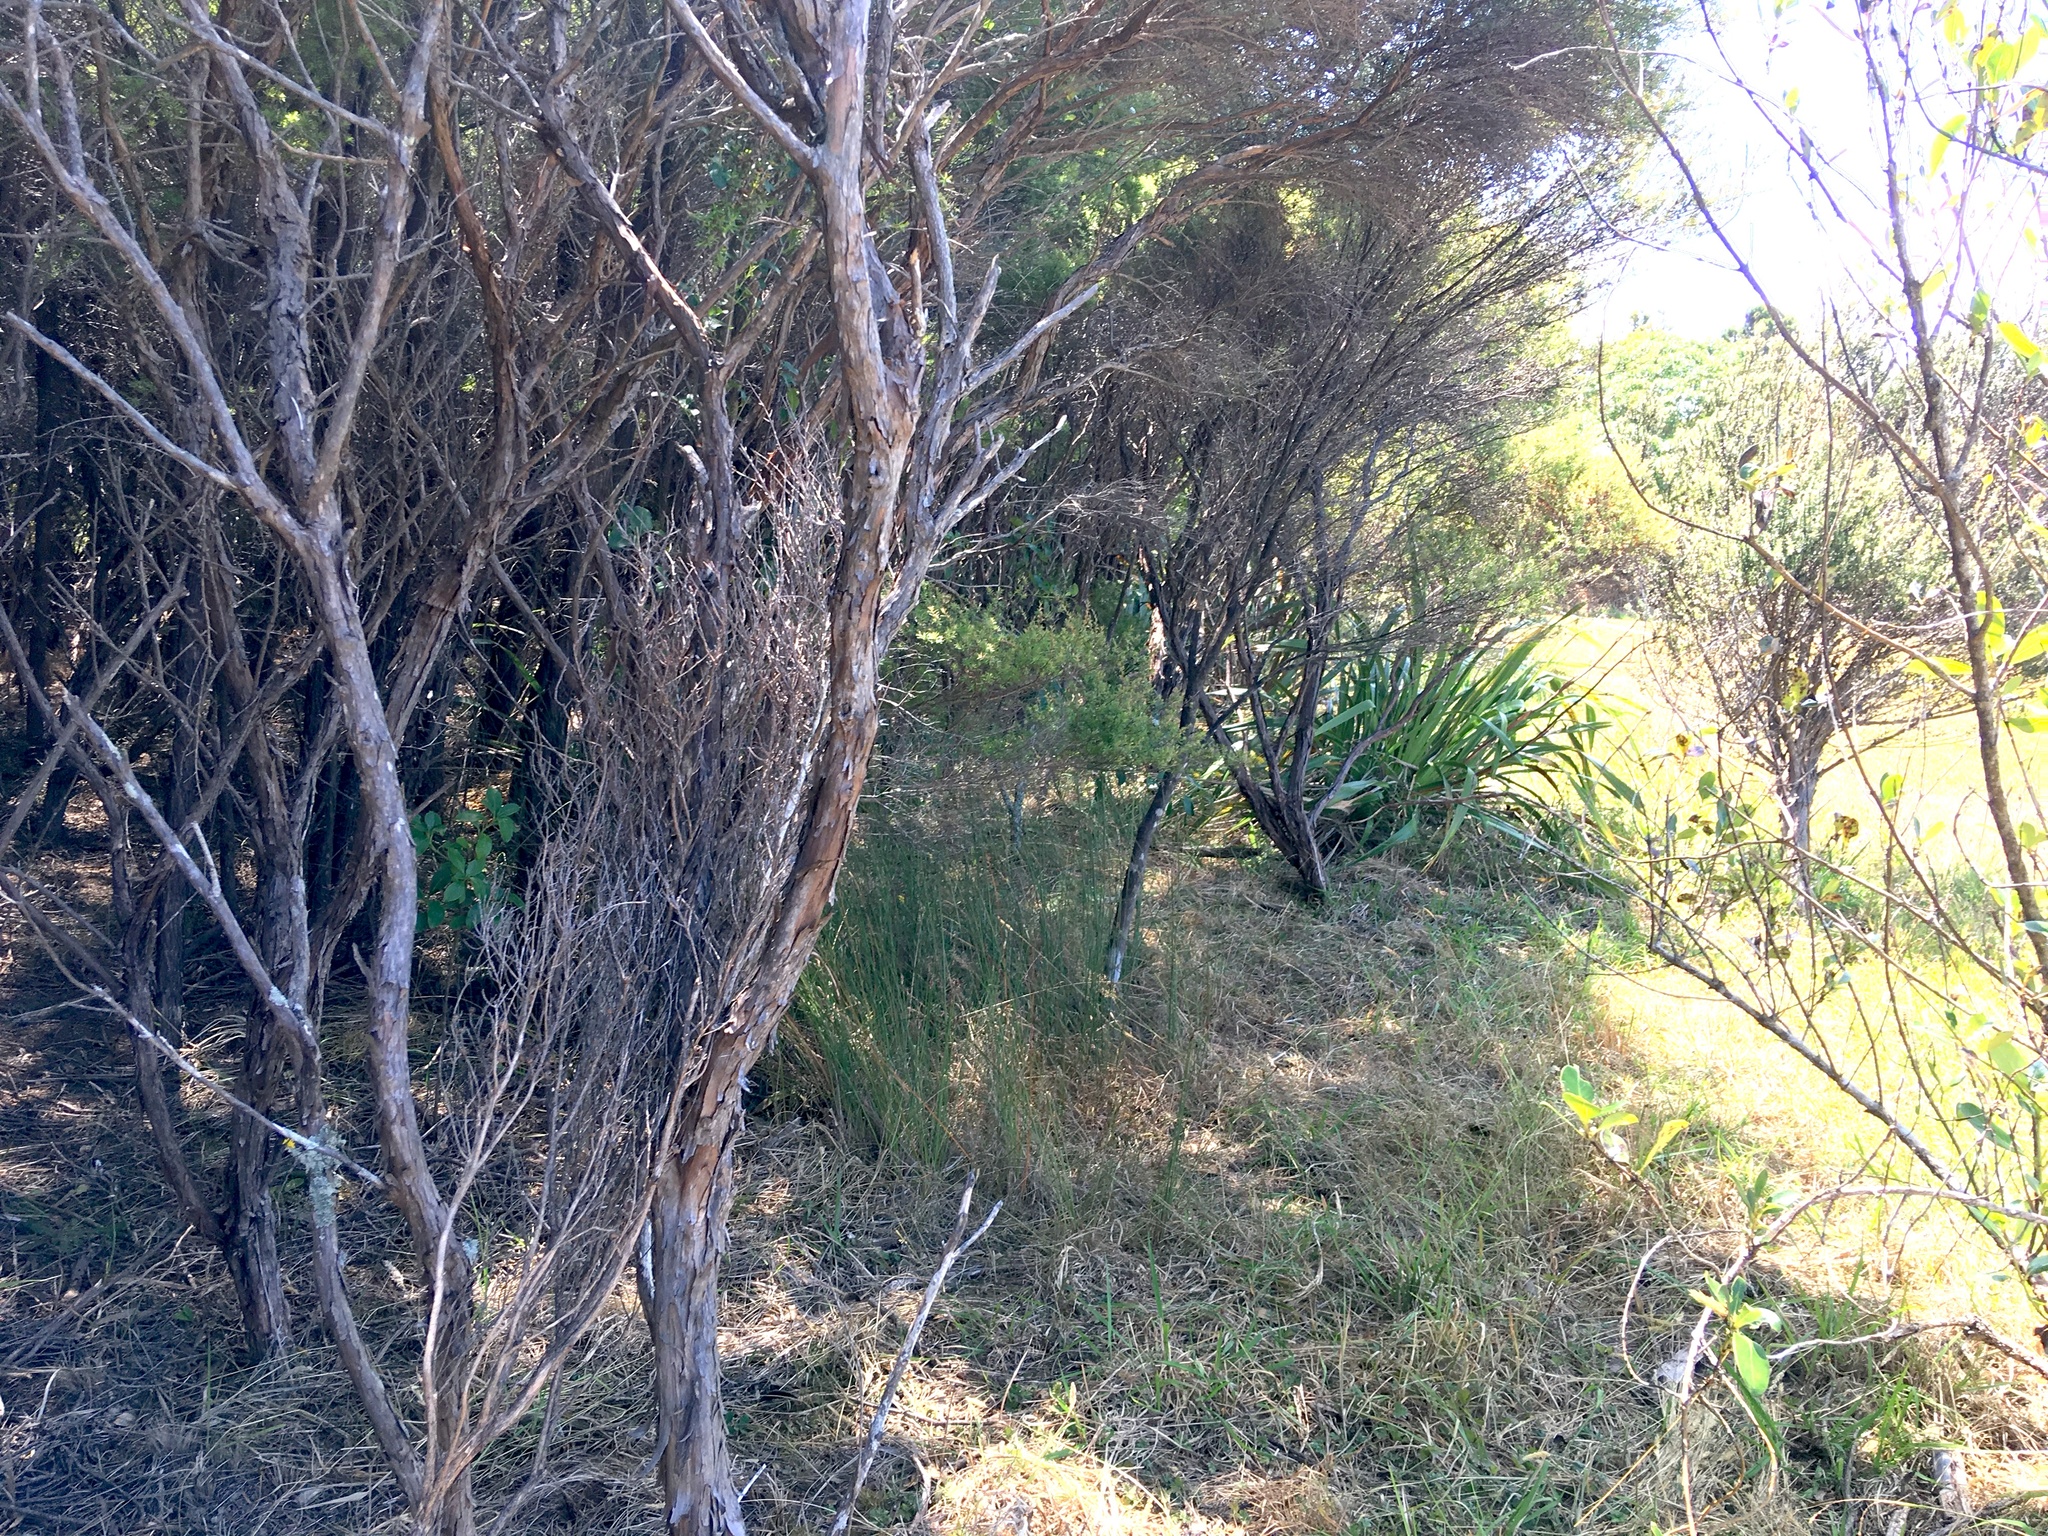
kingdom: Plantae
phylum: Tracheophyta
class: Liliopsida
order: Poales
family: Cyperaceae
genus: Lepidosperma
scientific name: Lepidosperma australe
